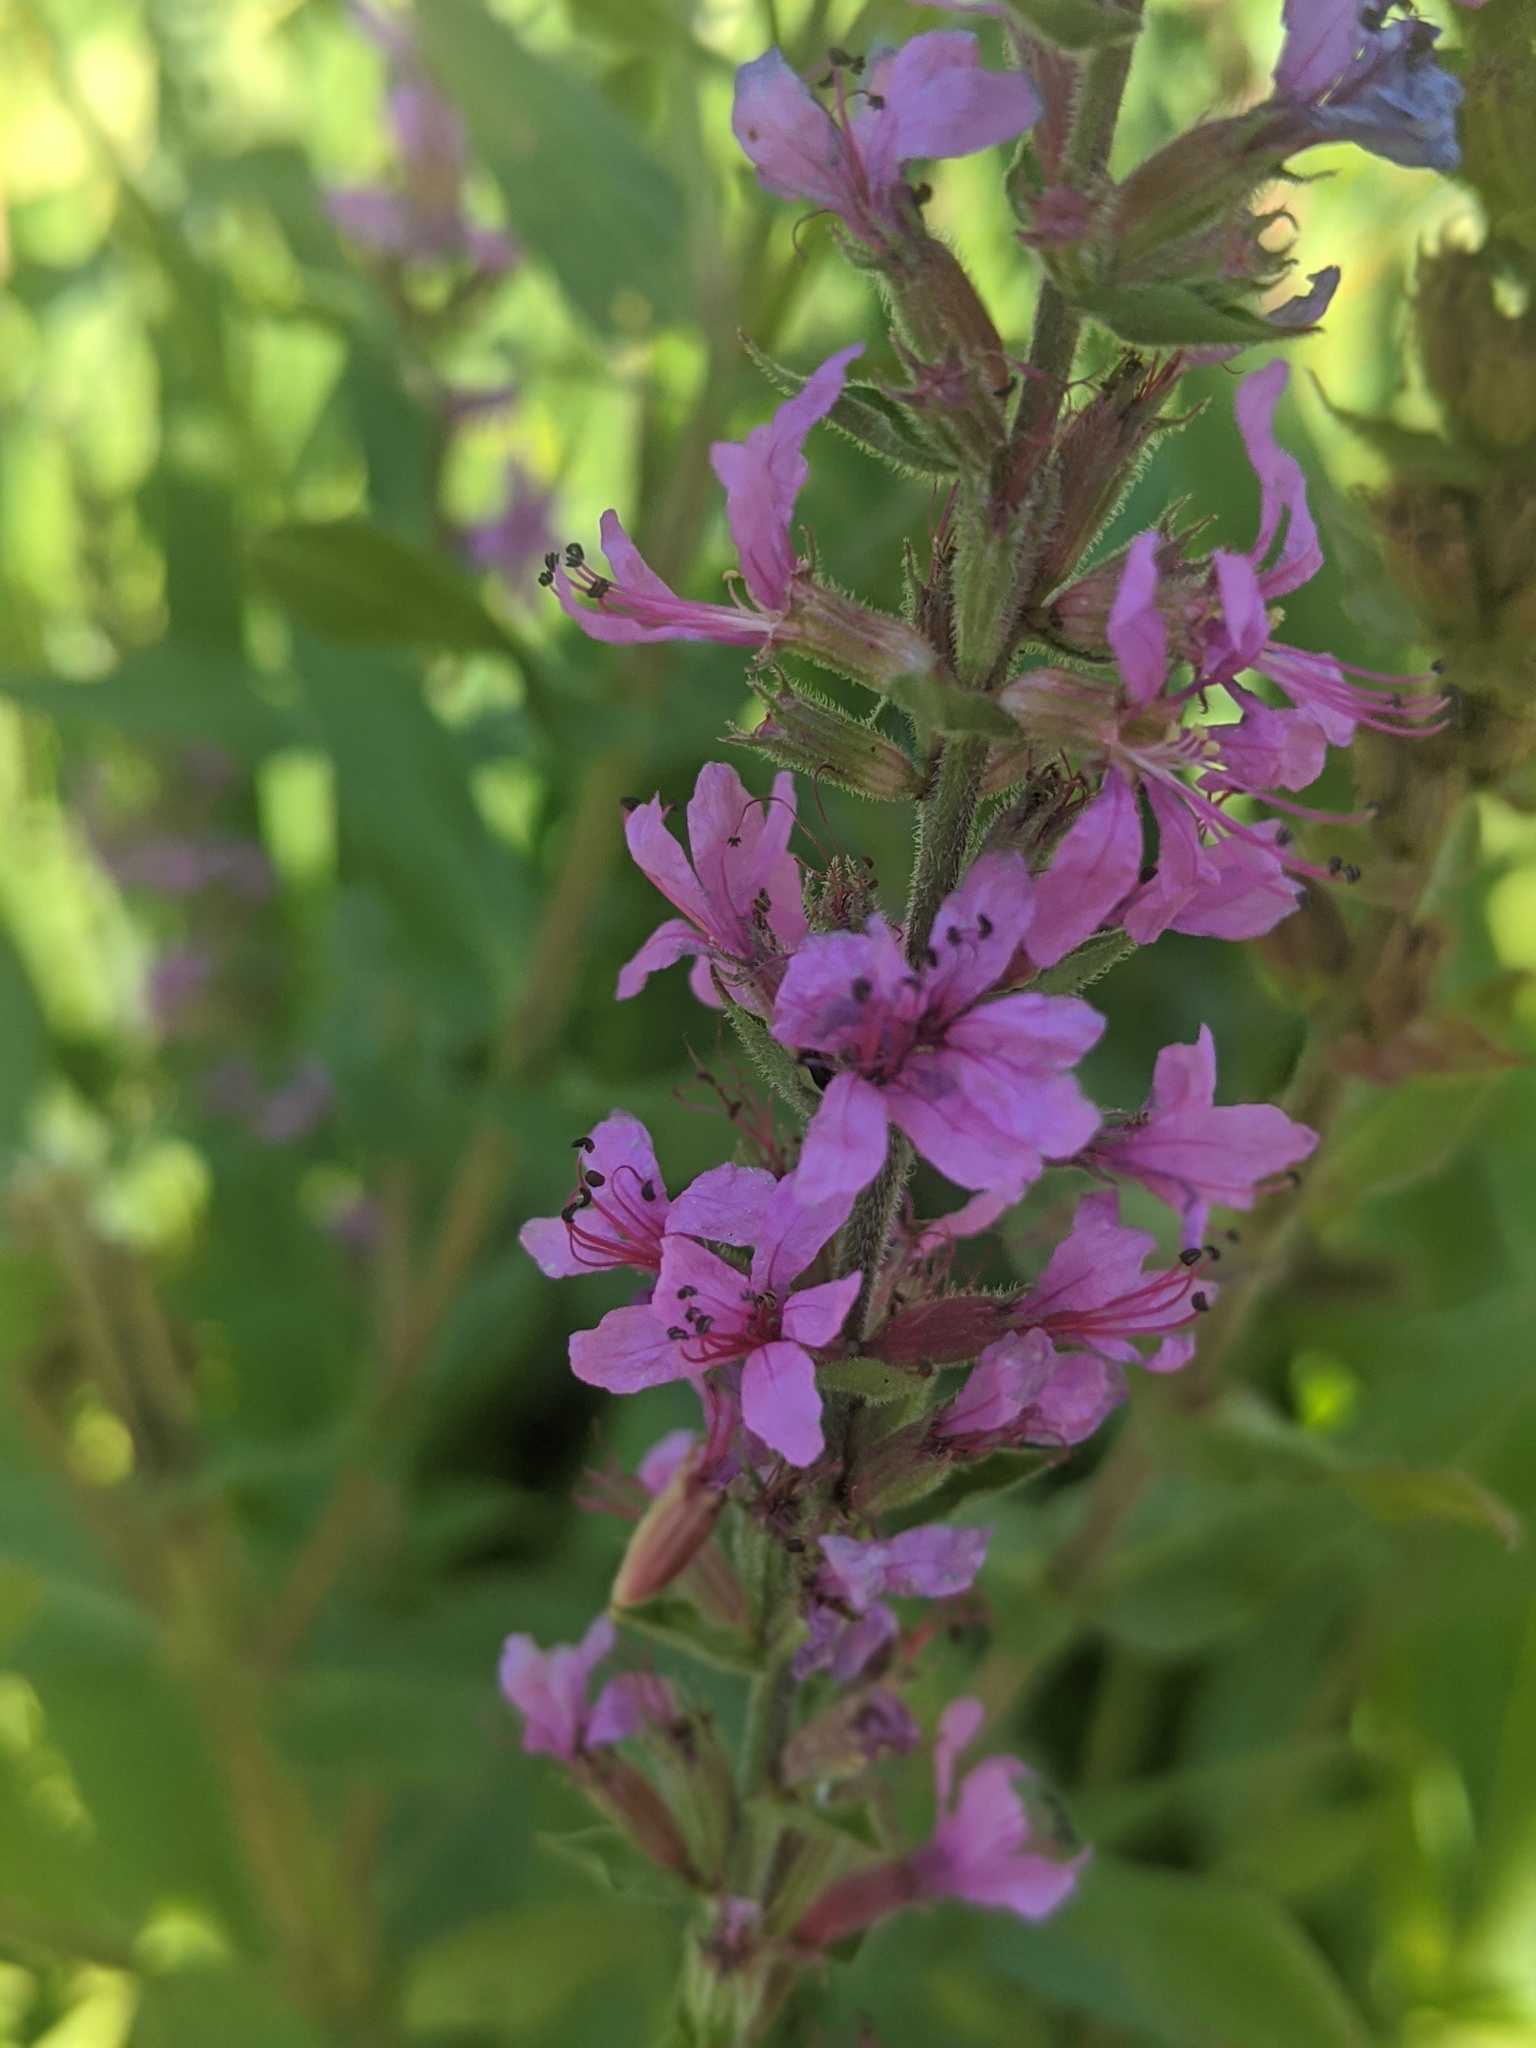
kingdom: Plantae
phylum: Tracheophyta
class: Magnoliopsida
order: Myrtales
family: Lythraceae
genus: Lythrum
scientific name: Lythrum salicaria
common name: Purple loosestrife
